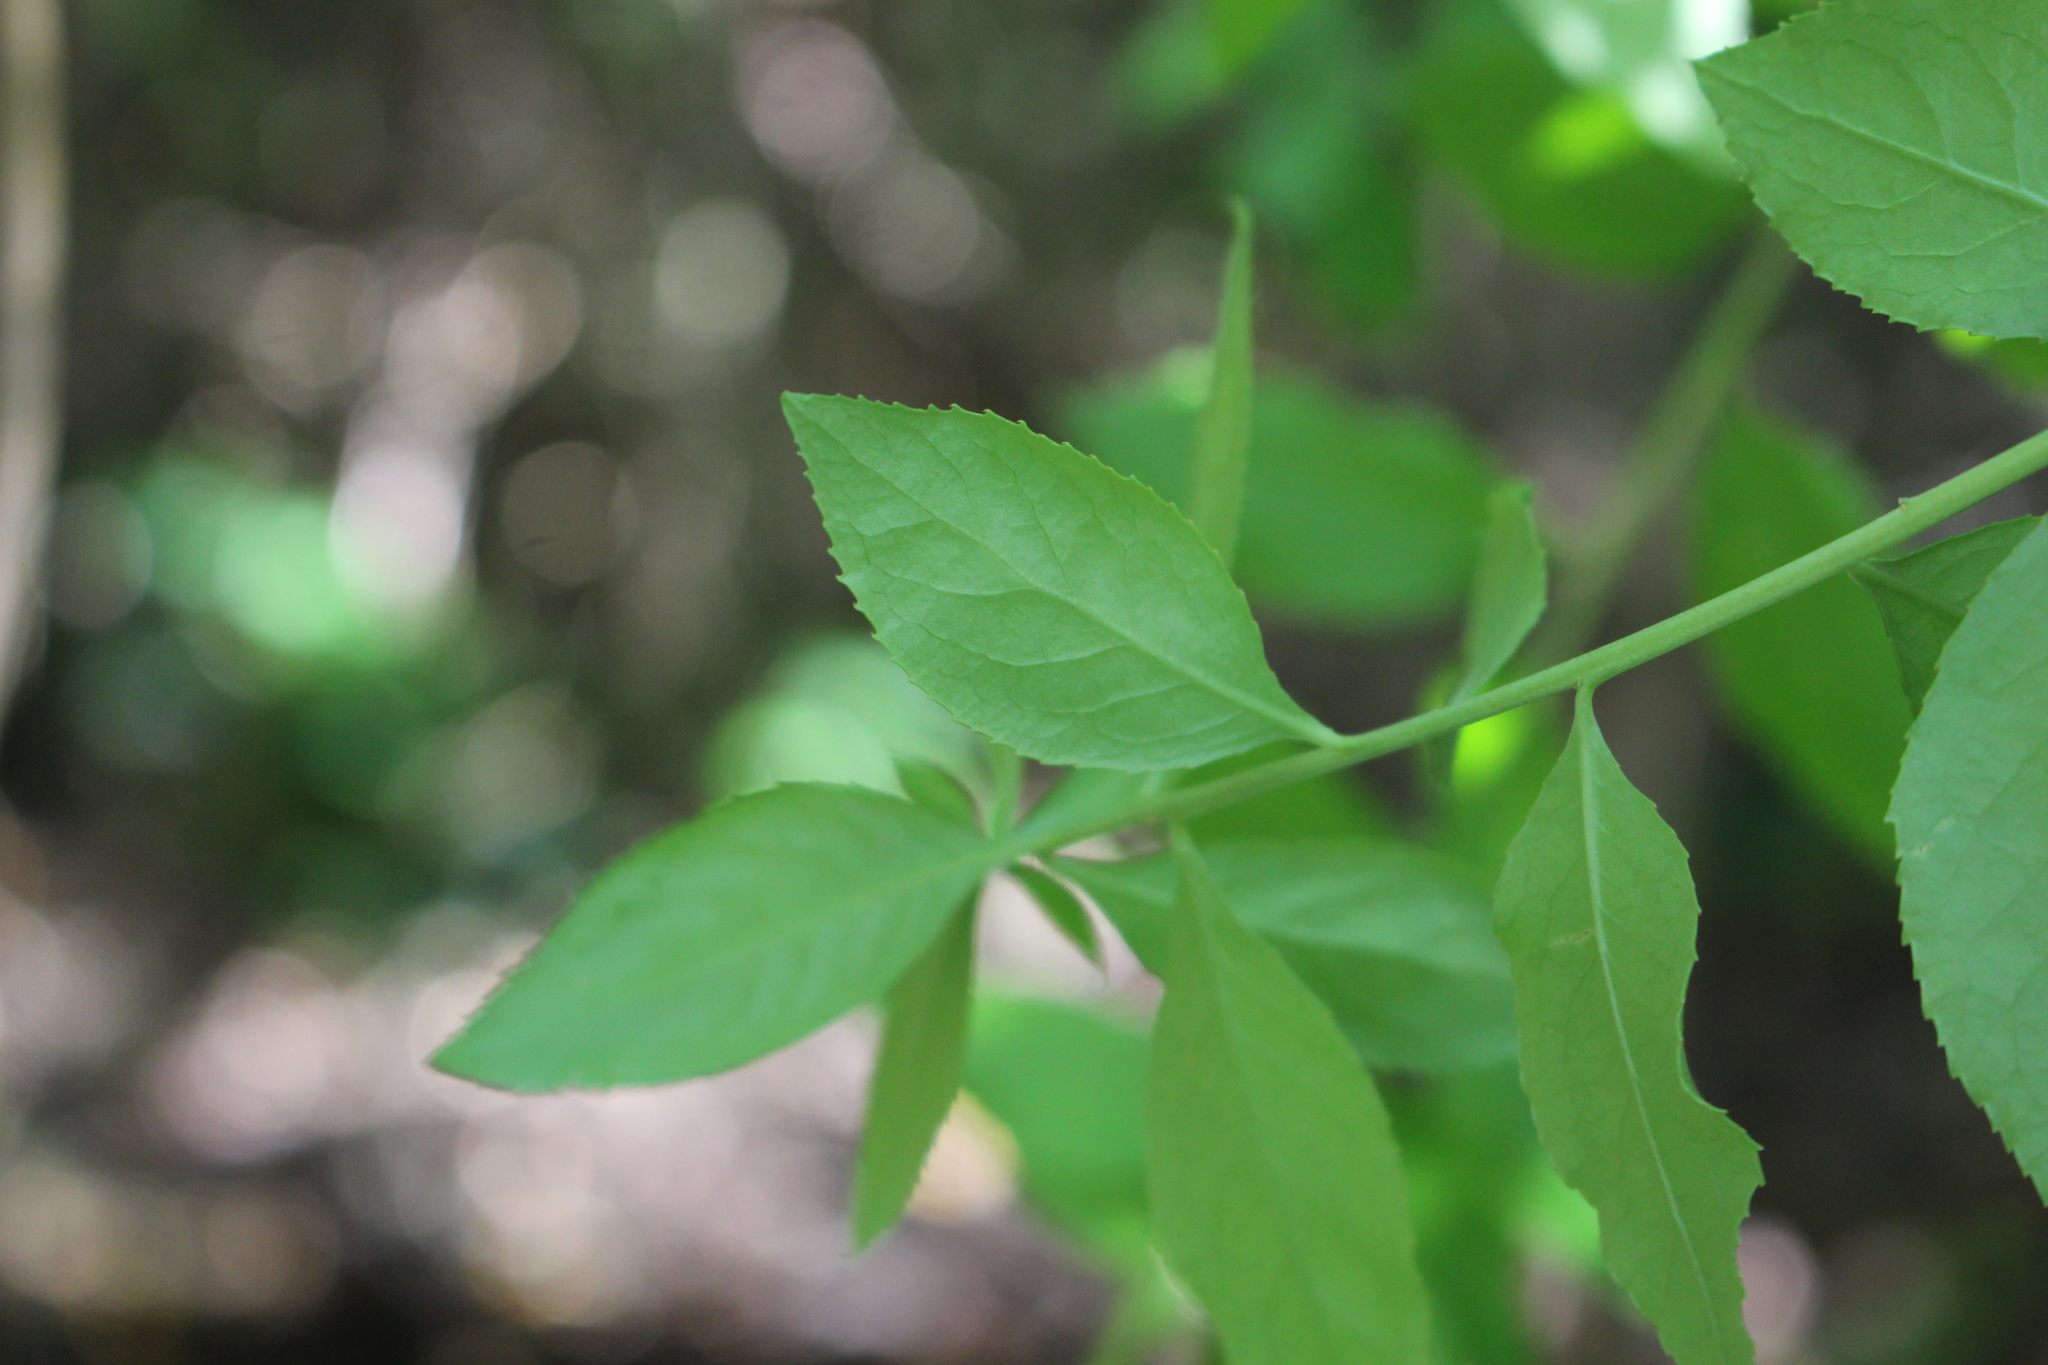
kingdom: Plantae
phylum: Tracheophyta
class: Magnoliopsida
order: Celastrales
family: Celastraceae
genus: Maytenus
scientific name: Maytenus boaria
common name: Mayten
